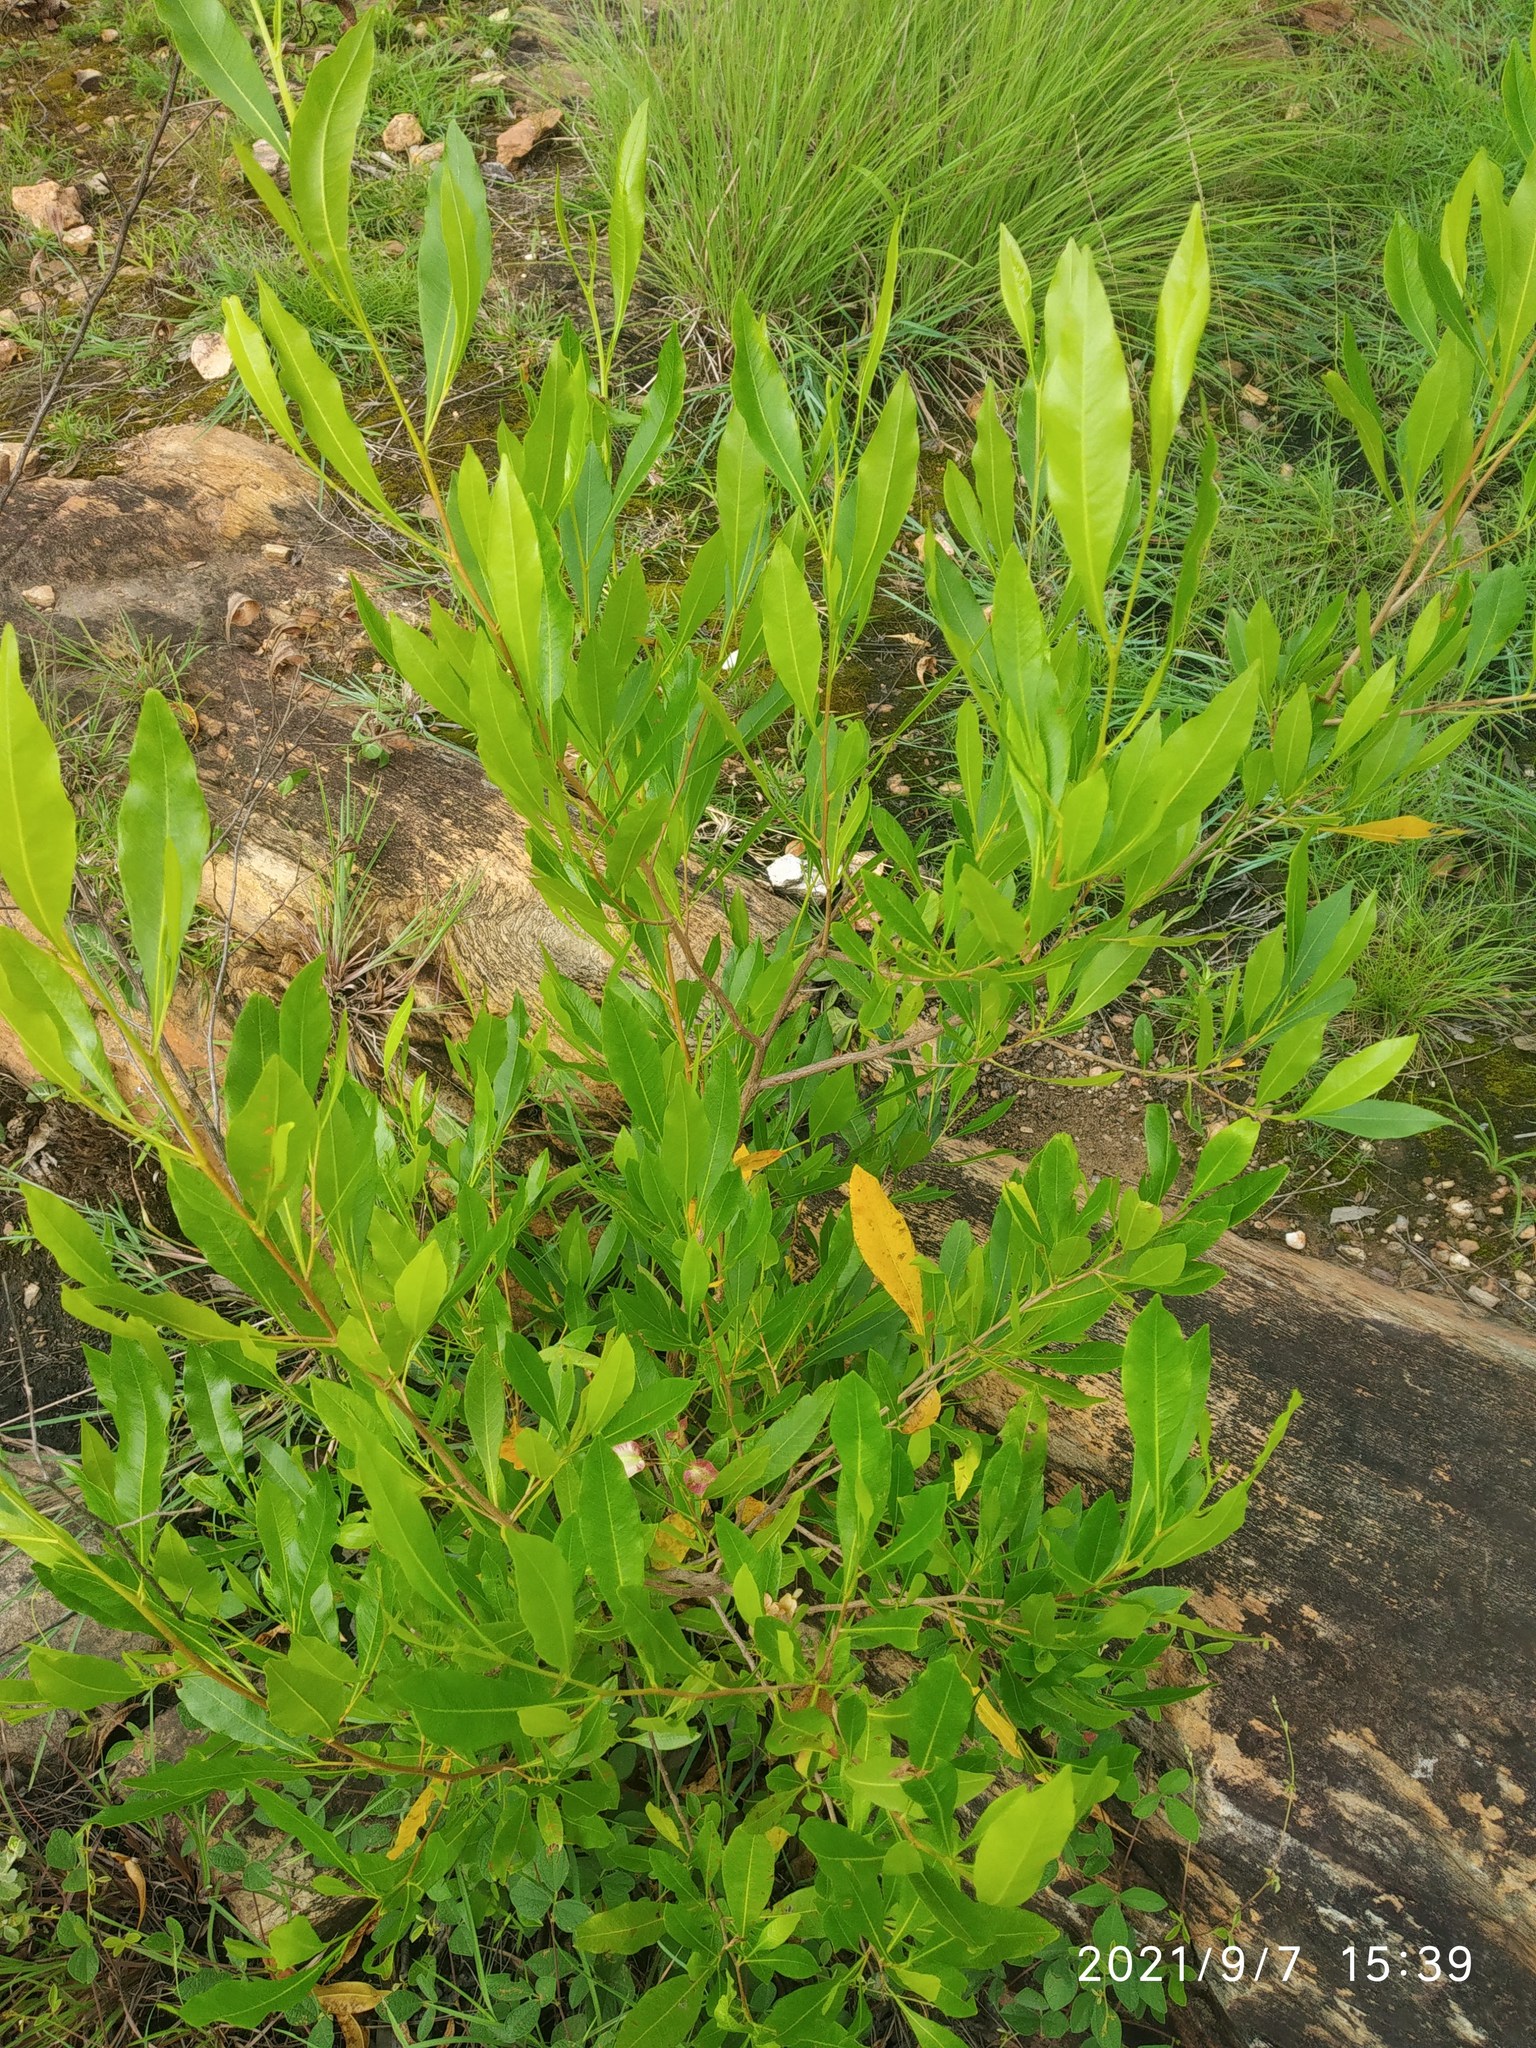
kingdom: Plantae
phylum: Tracheophyta
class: Magnoliopsida
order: Sapindales
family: Sapindaceae
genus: Dodonaea
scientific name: Dodonaea viscosa
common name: Hopbush
